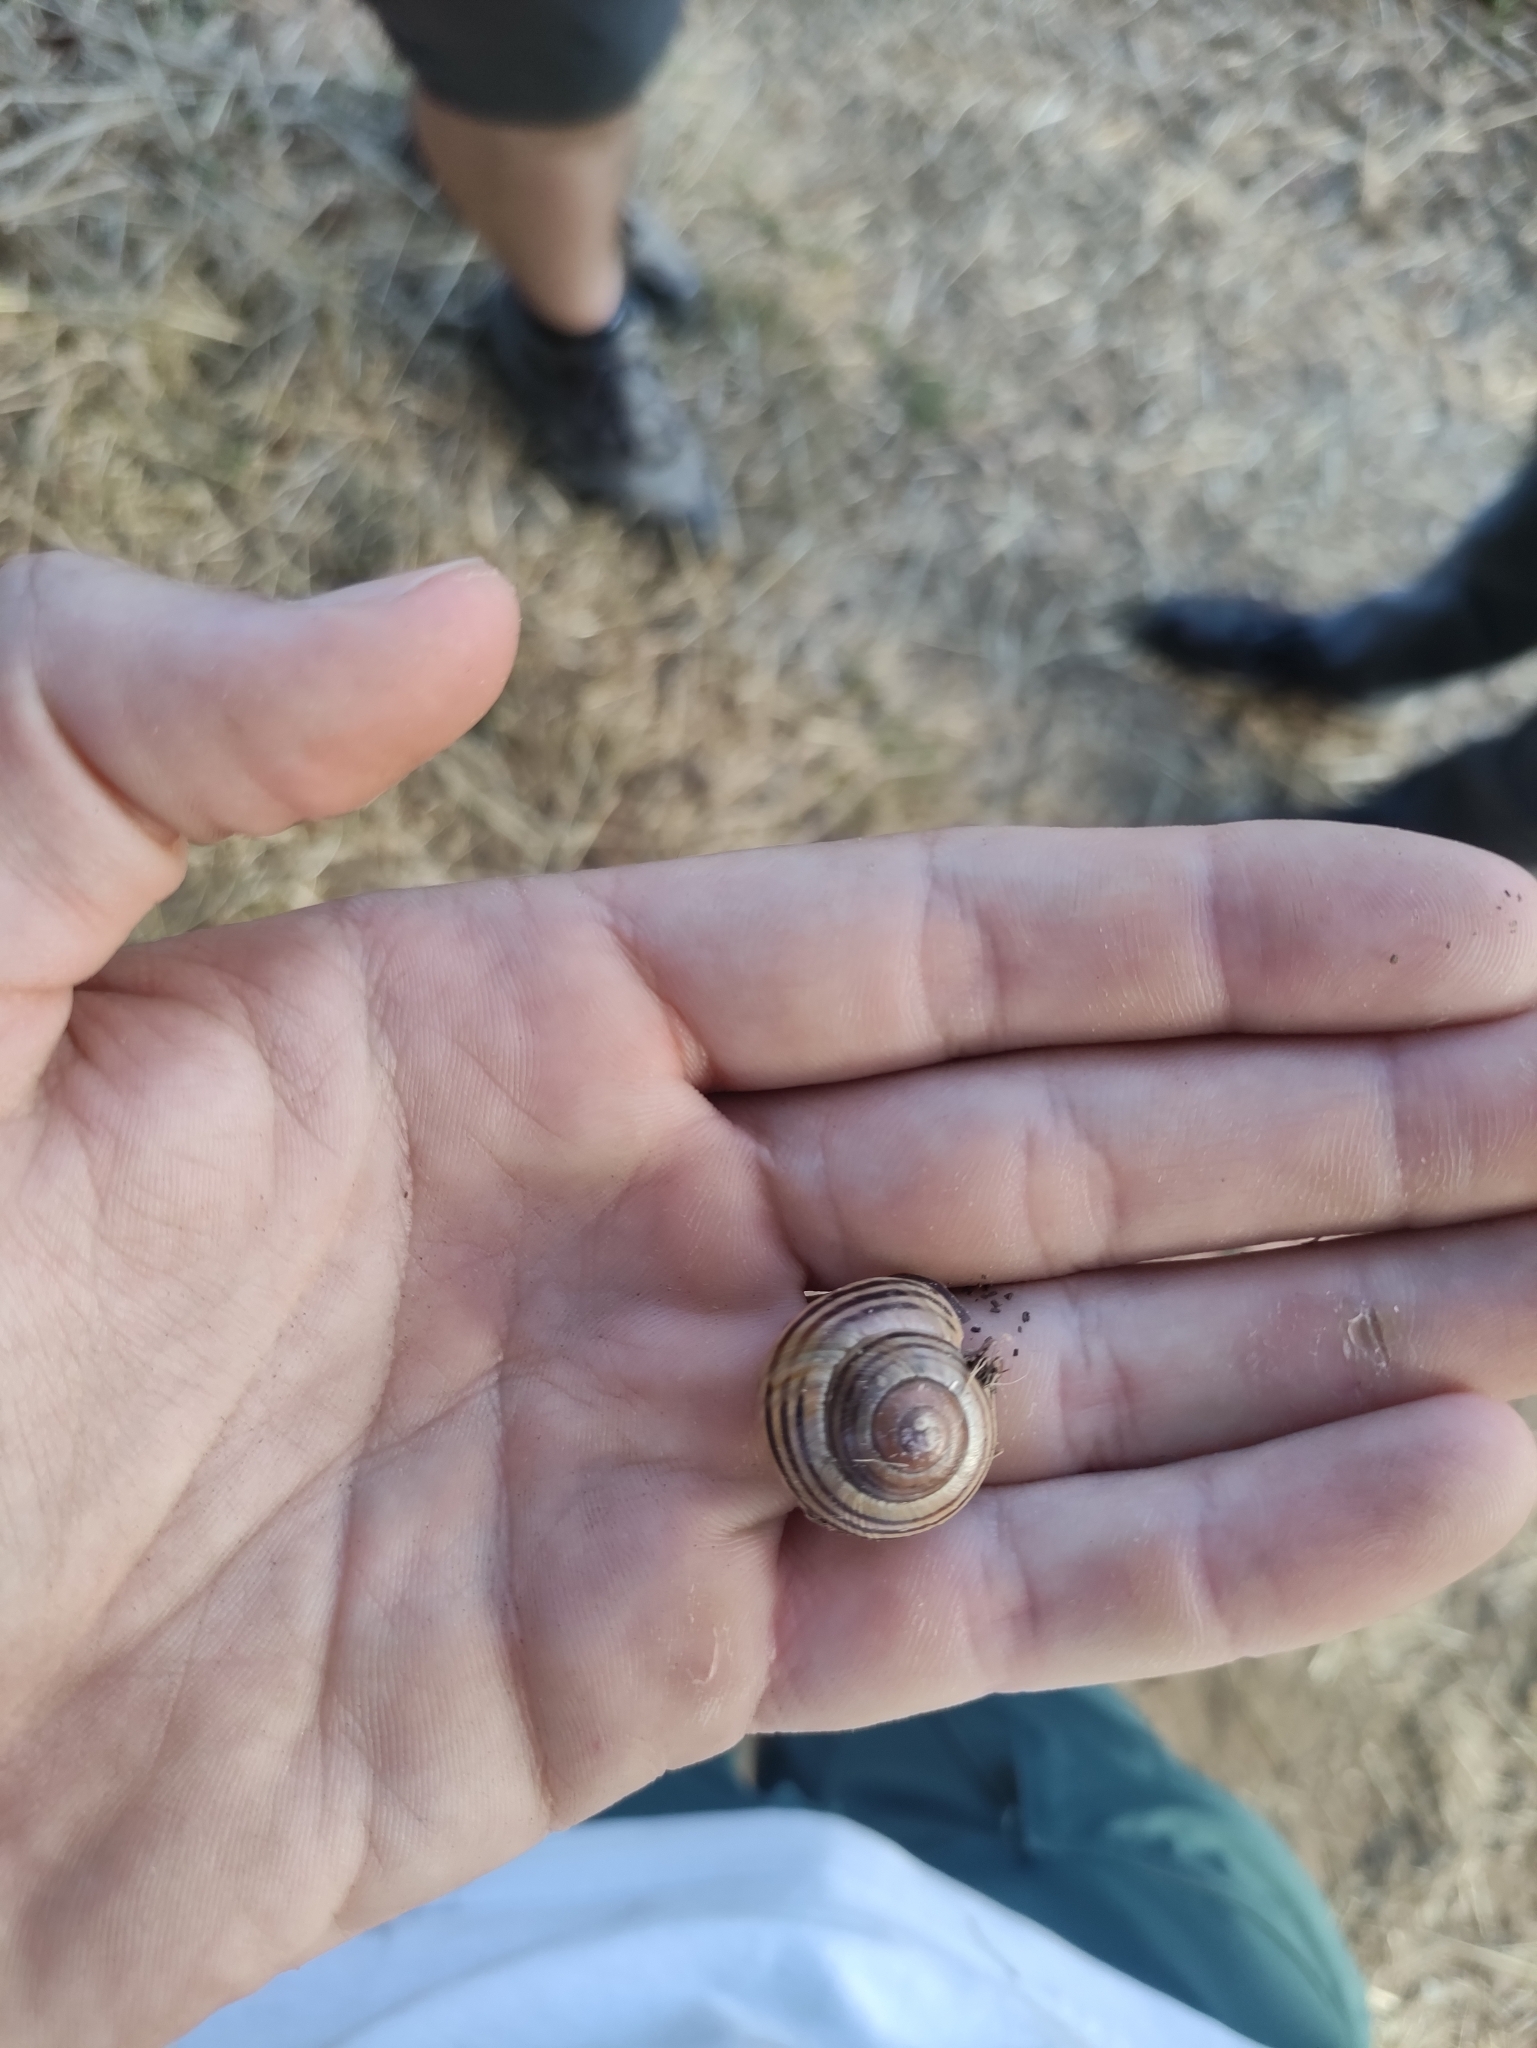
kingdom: Animalia
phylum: Mollusca
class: Gastropoda
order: Stylommatophora
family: Helicidae
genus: Cepaea
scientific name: Cepaea nemoralis
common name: Grovesnail
